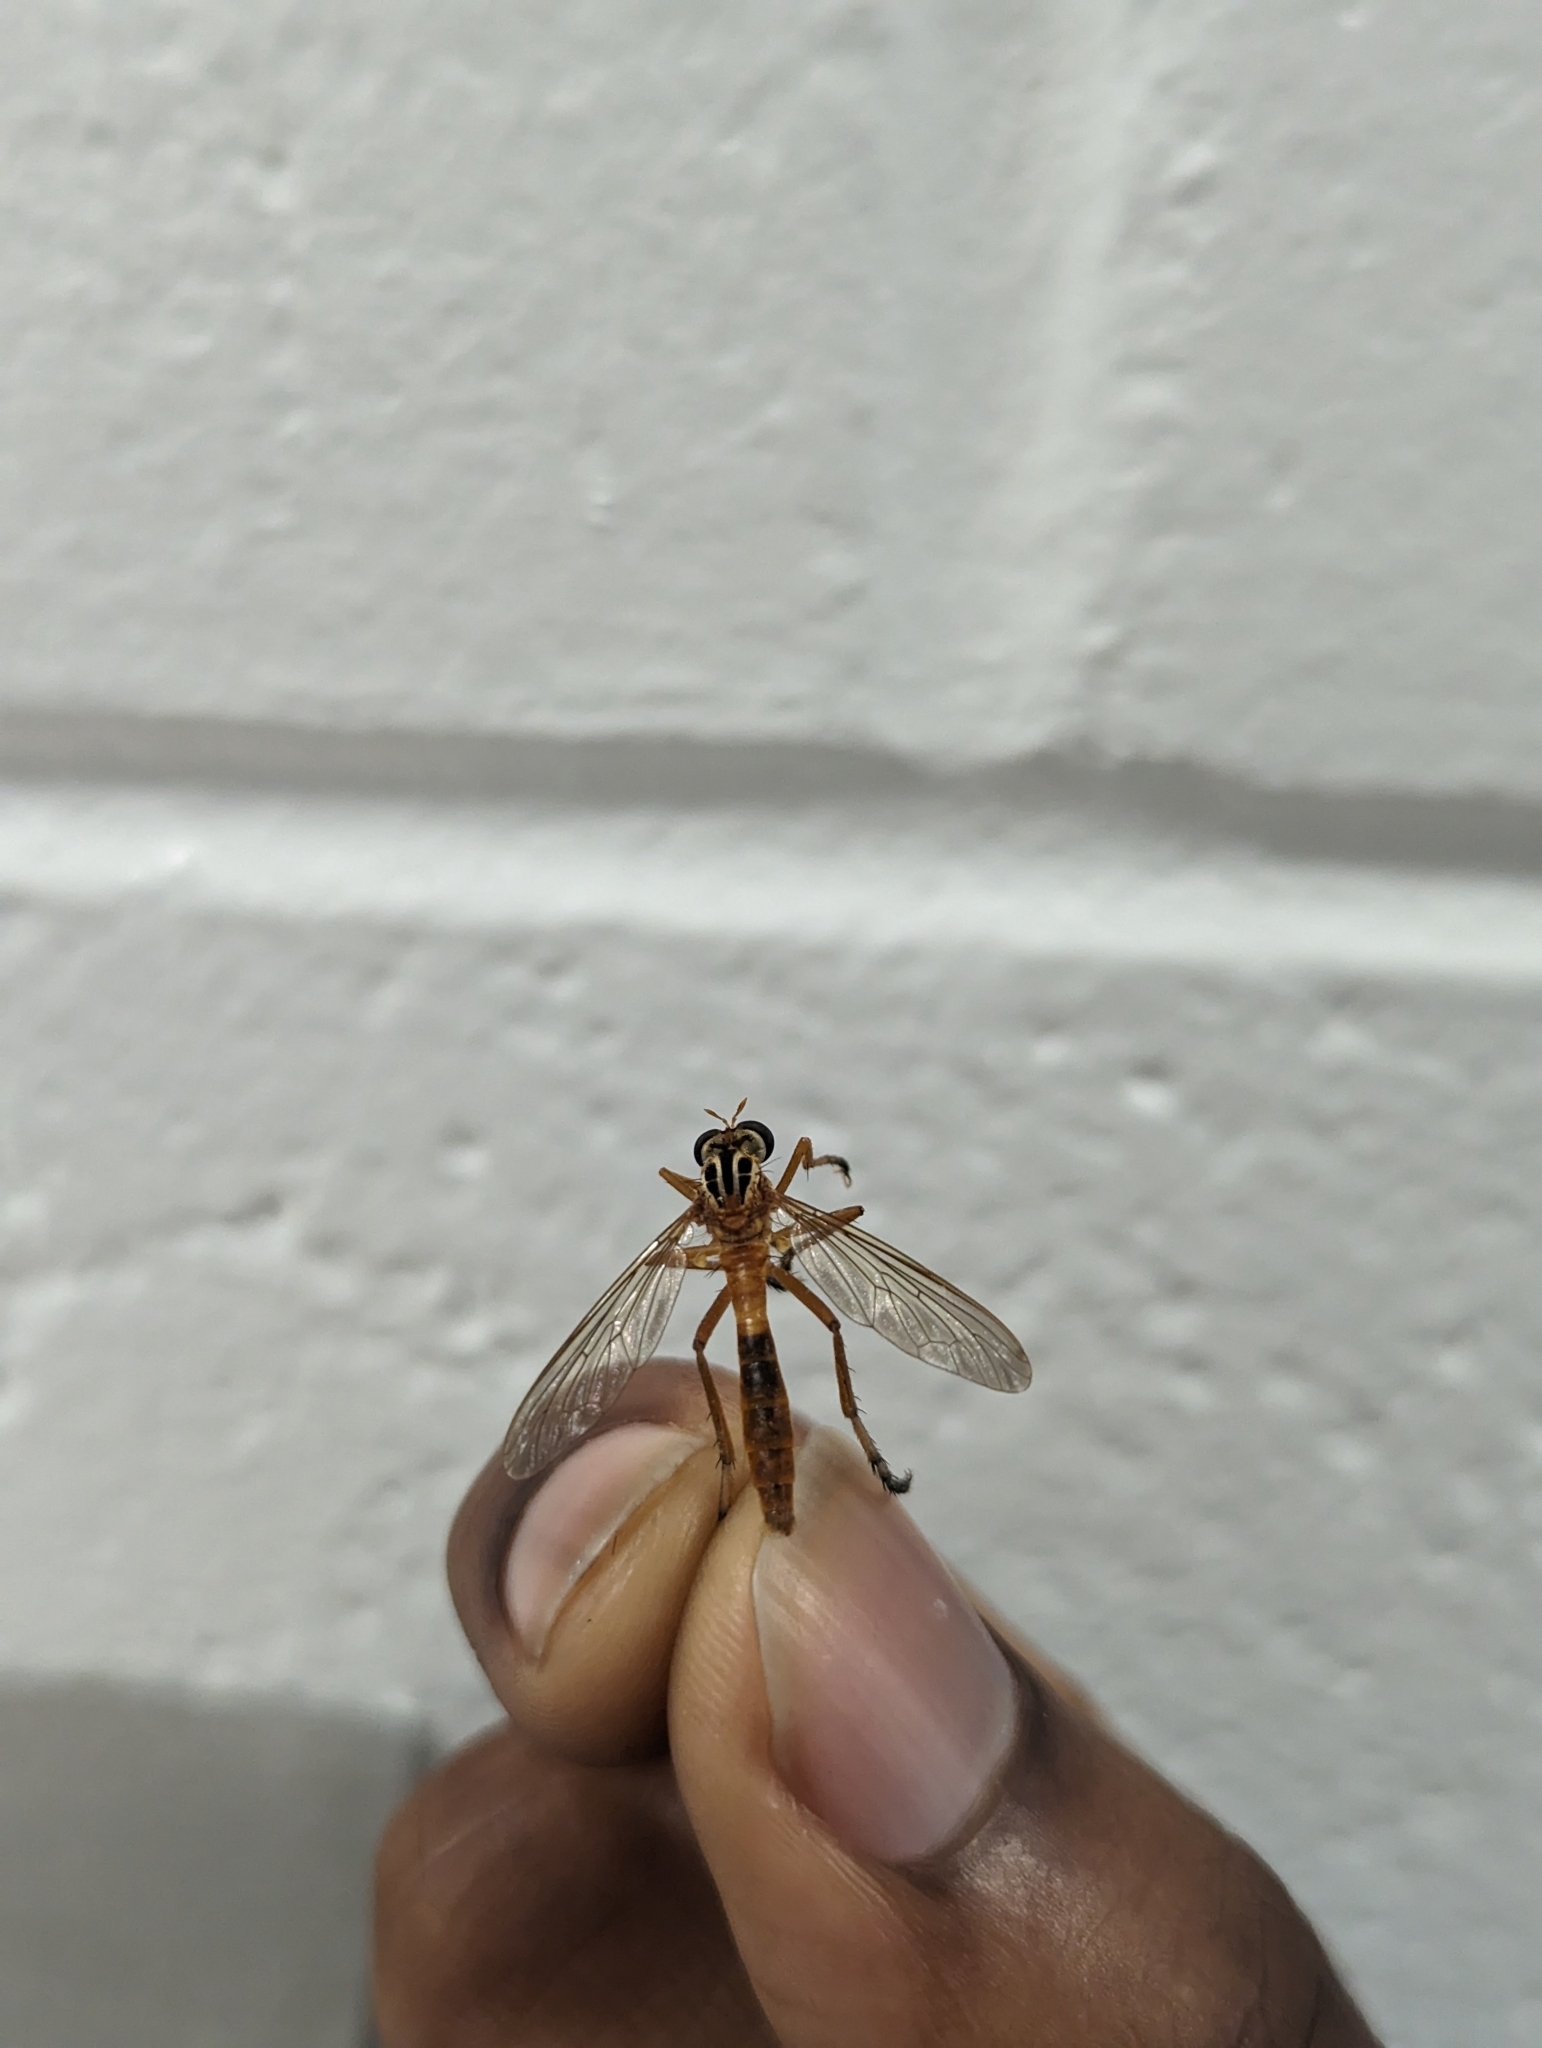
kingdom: Animalia
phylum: Arthropoda
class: Insecta
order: Diptera
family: Asilidae
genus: Diogmites
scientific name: Diogmites neoternatus
